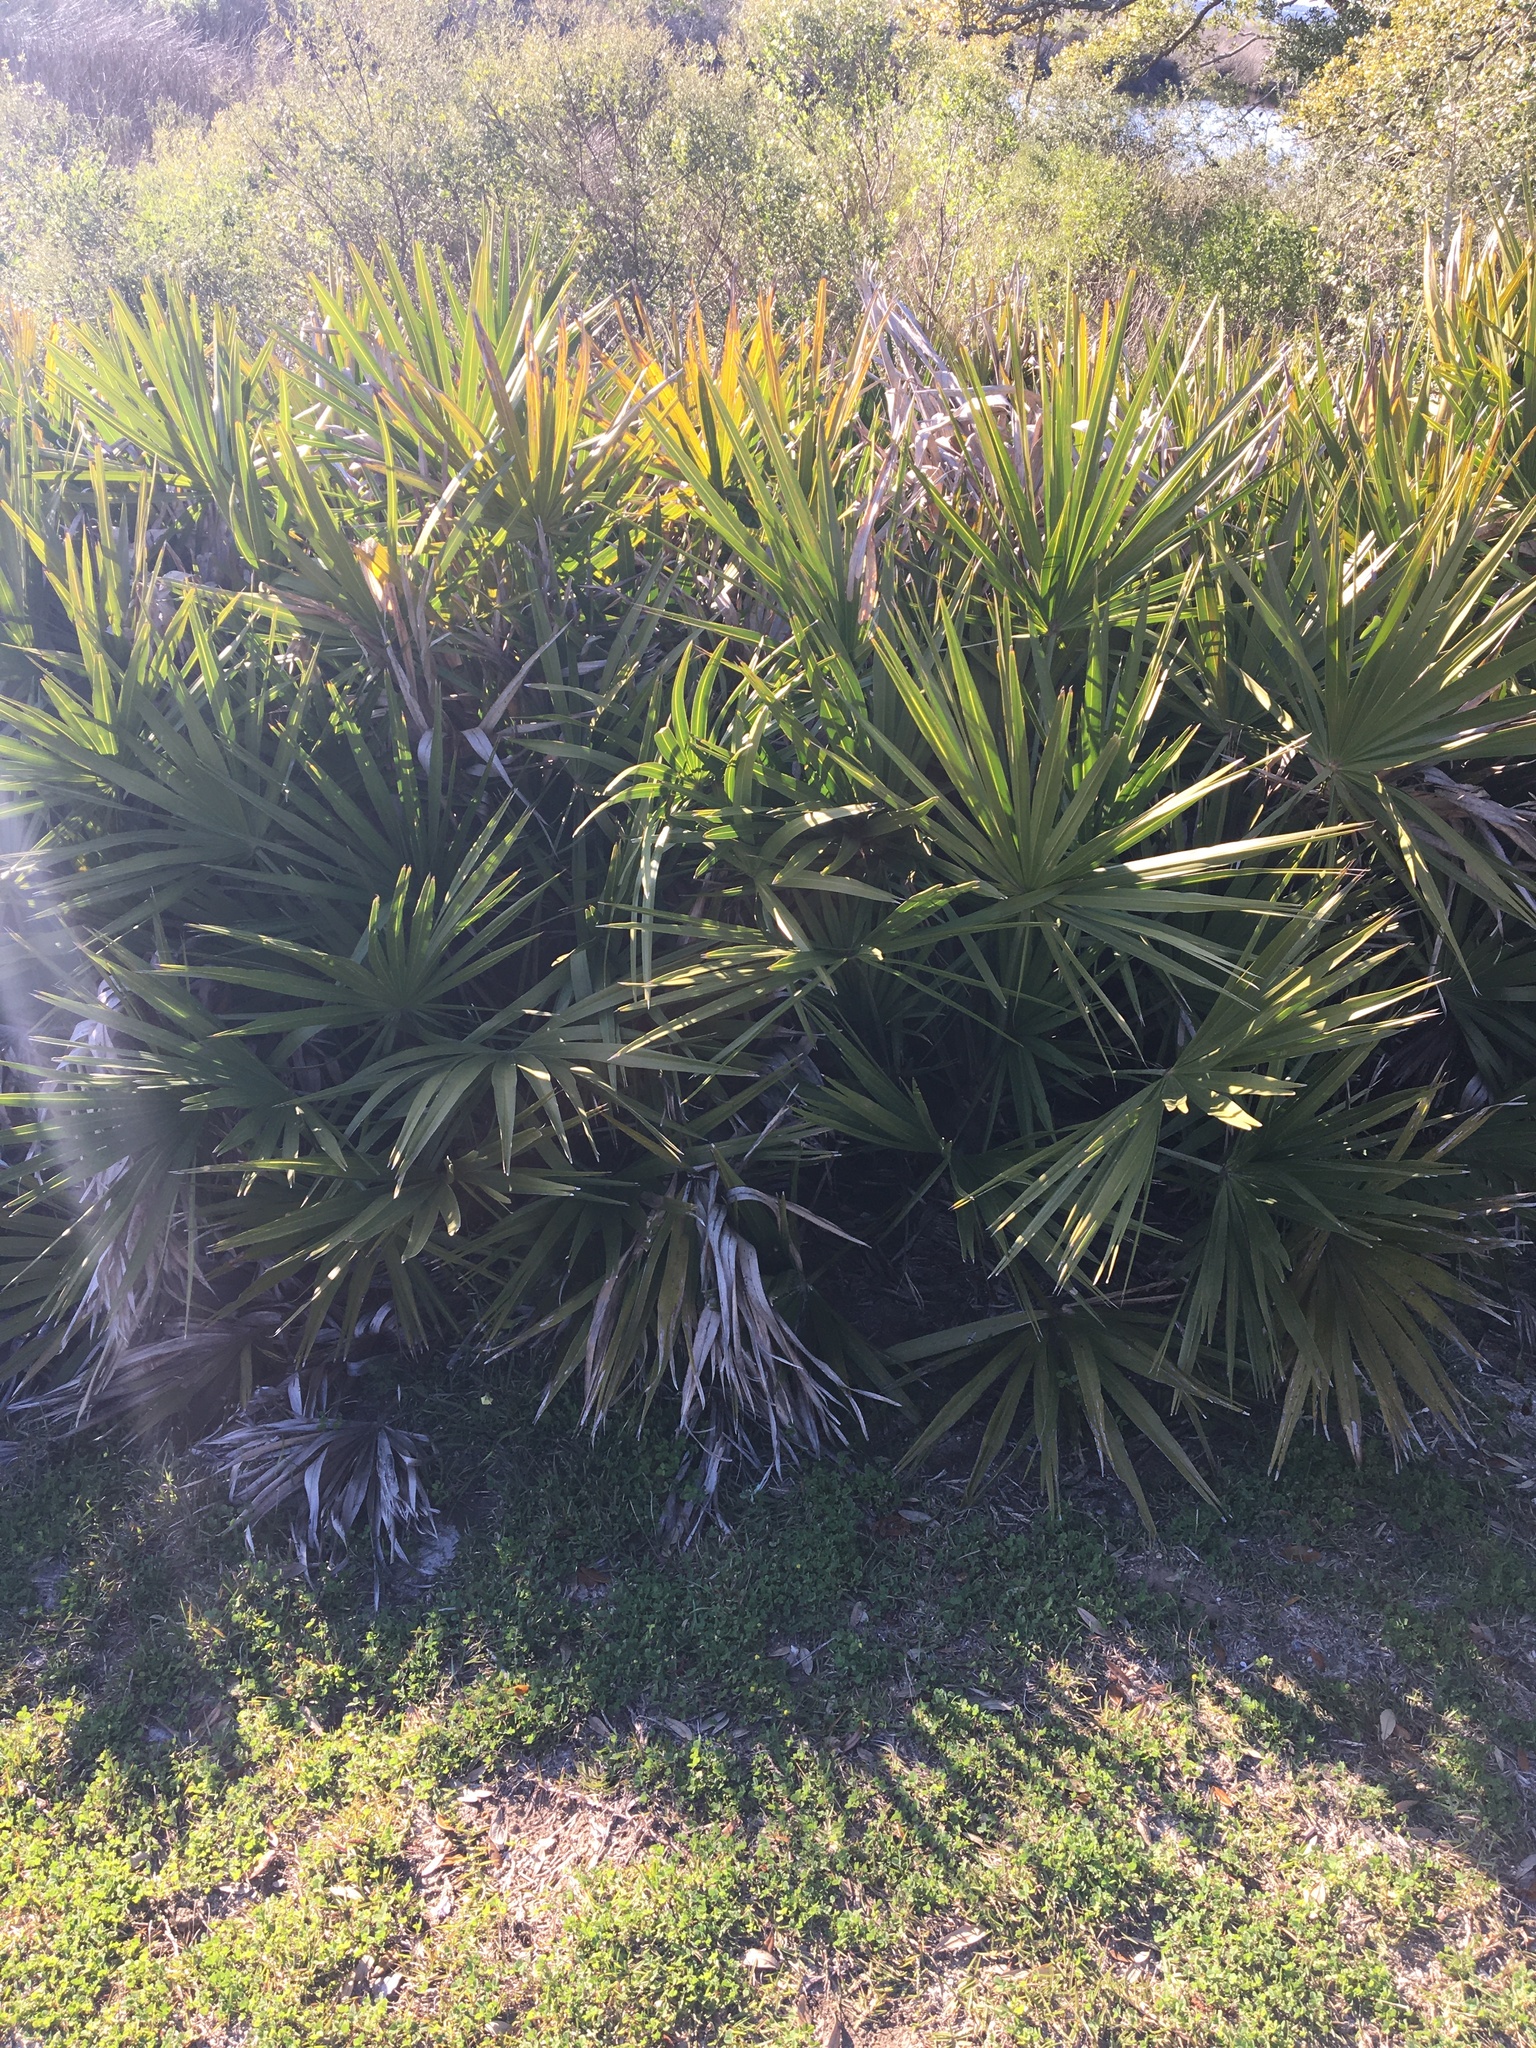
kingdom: Plantae
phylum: Tracheophyta
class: Liliopsida
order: Arecales
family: Arecaceae
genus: Serenoa
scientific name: Serenoa repens
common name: Saw-palmetto
